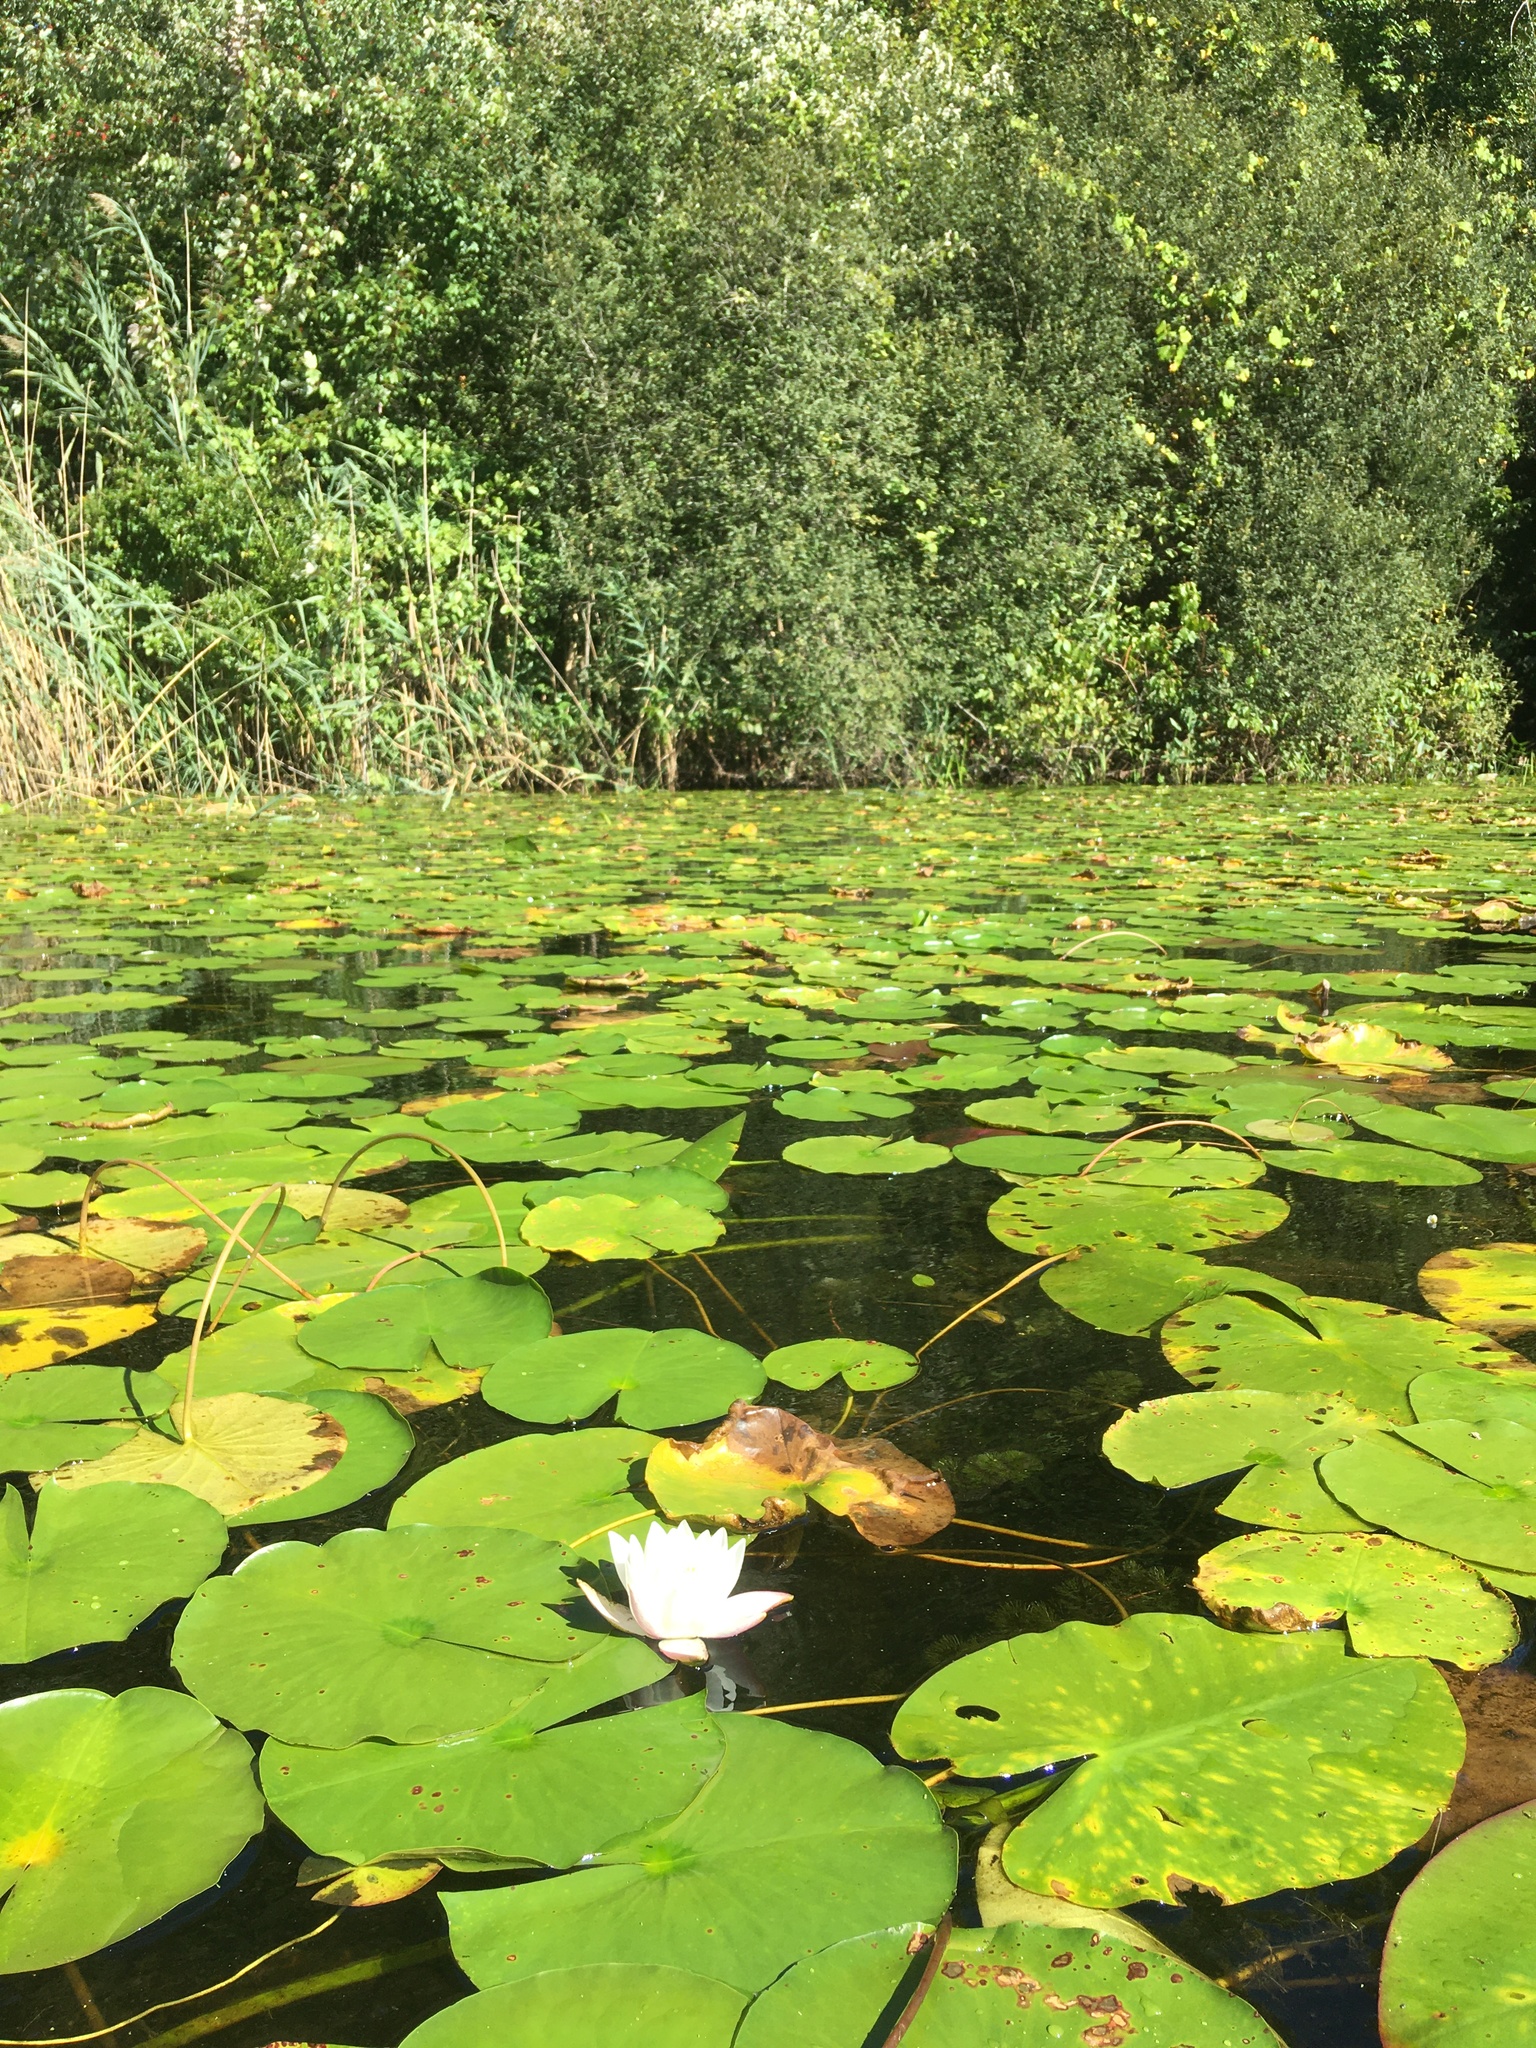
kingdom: Plantae
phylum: Tracheophyta
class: Magnoliopsida
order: Nymphaeales
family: Nymphaeaceae
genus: Nymphaea
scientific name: Nymphaea odorata
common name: Fragrant water-lily
